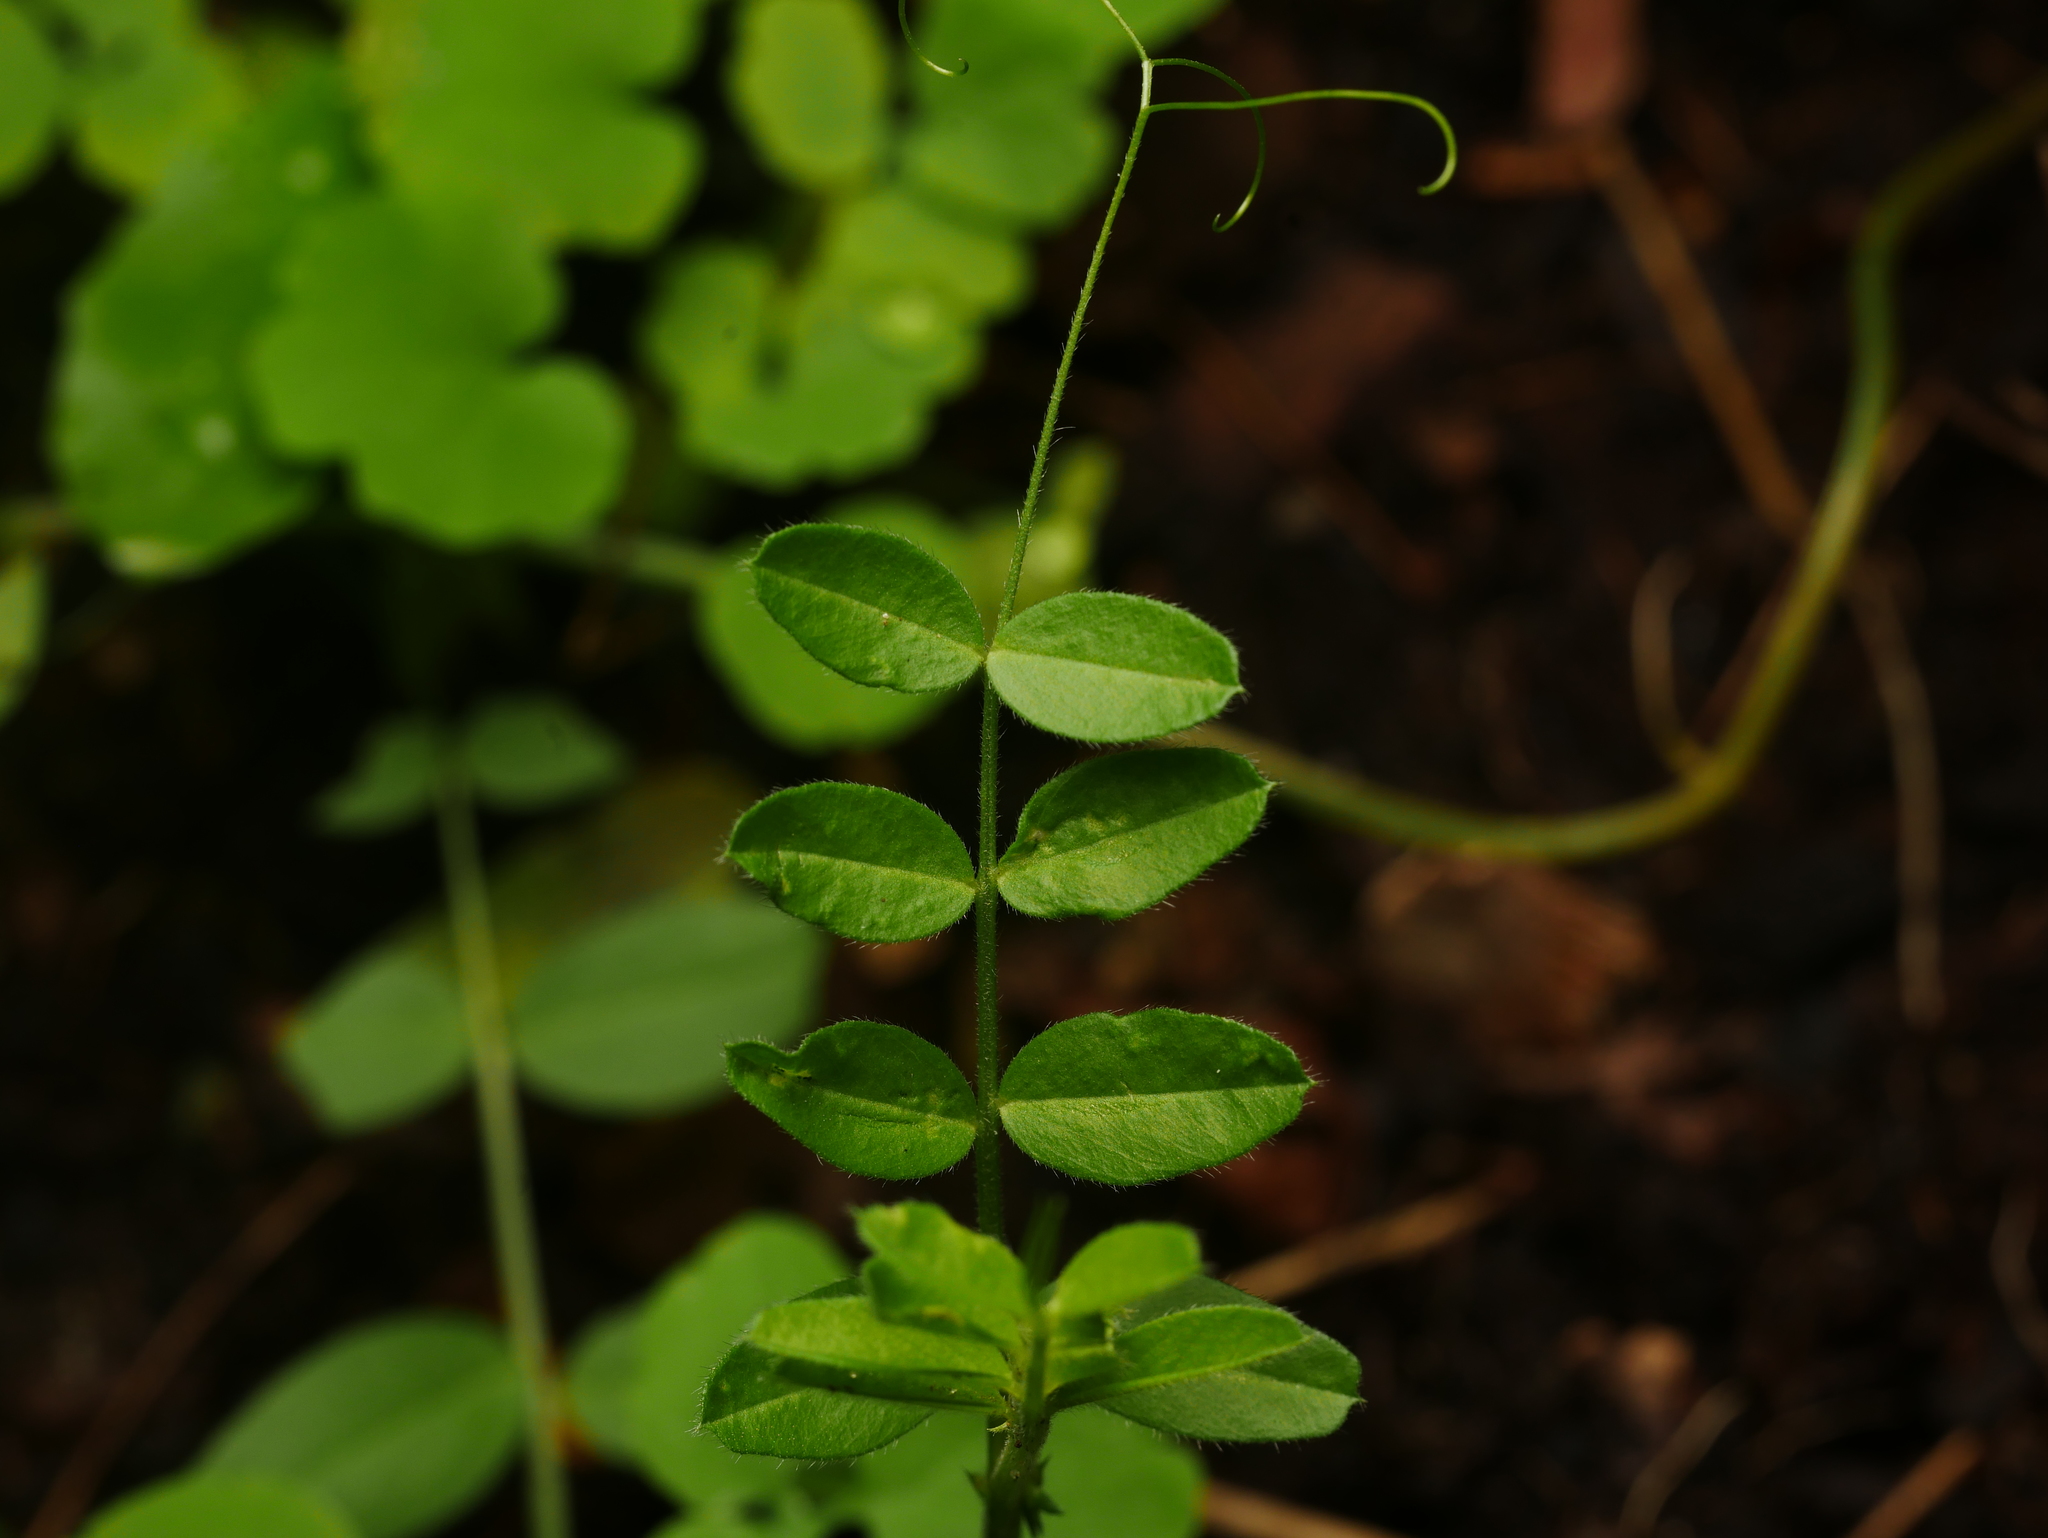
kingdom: Plantae
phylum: Tracheophyta
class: Magnoliopsida
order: Fabales
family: Fabaceae
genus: Vicia
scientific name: Vicia sepium
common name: Bush vetch
